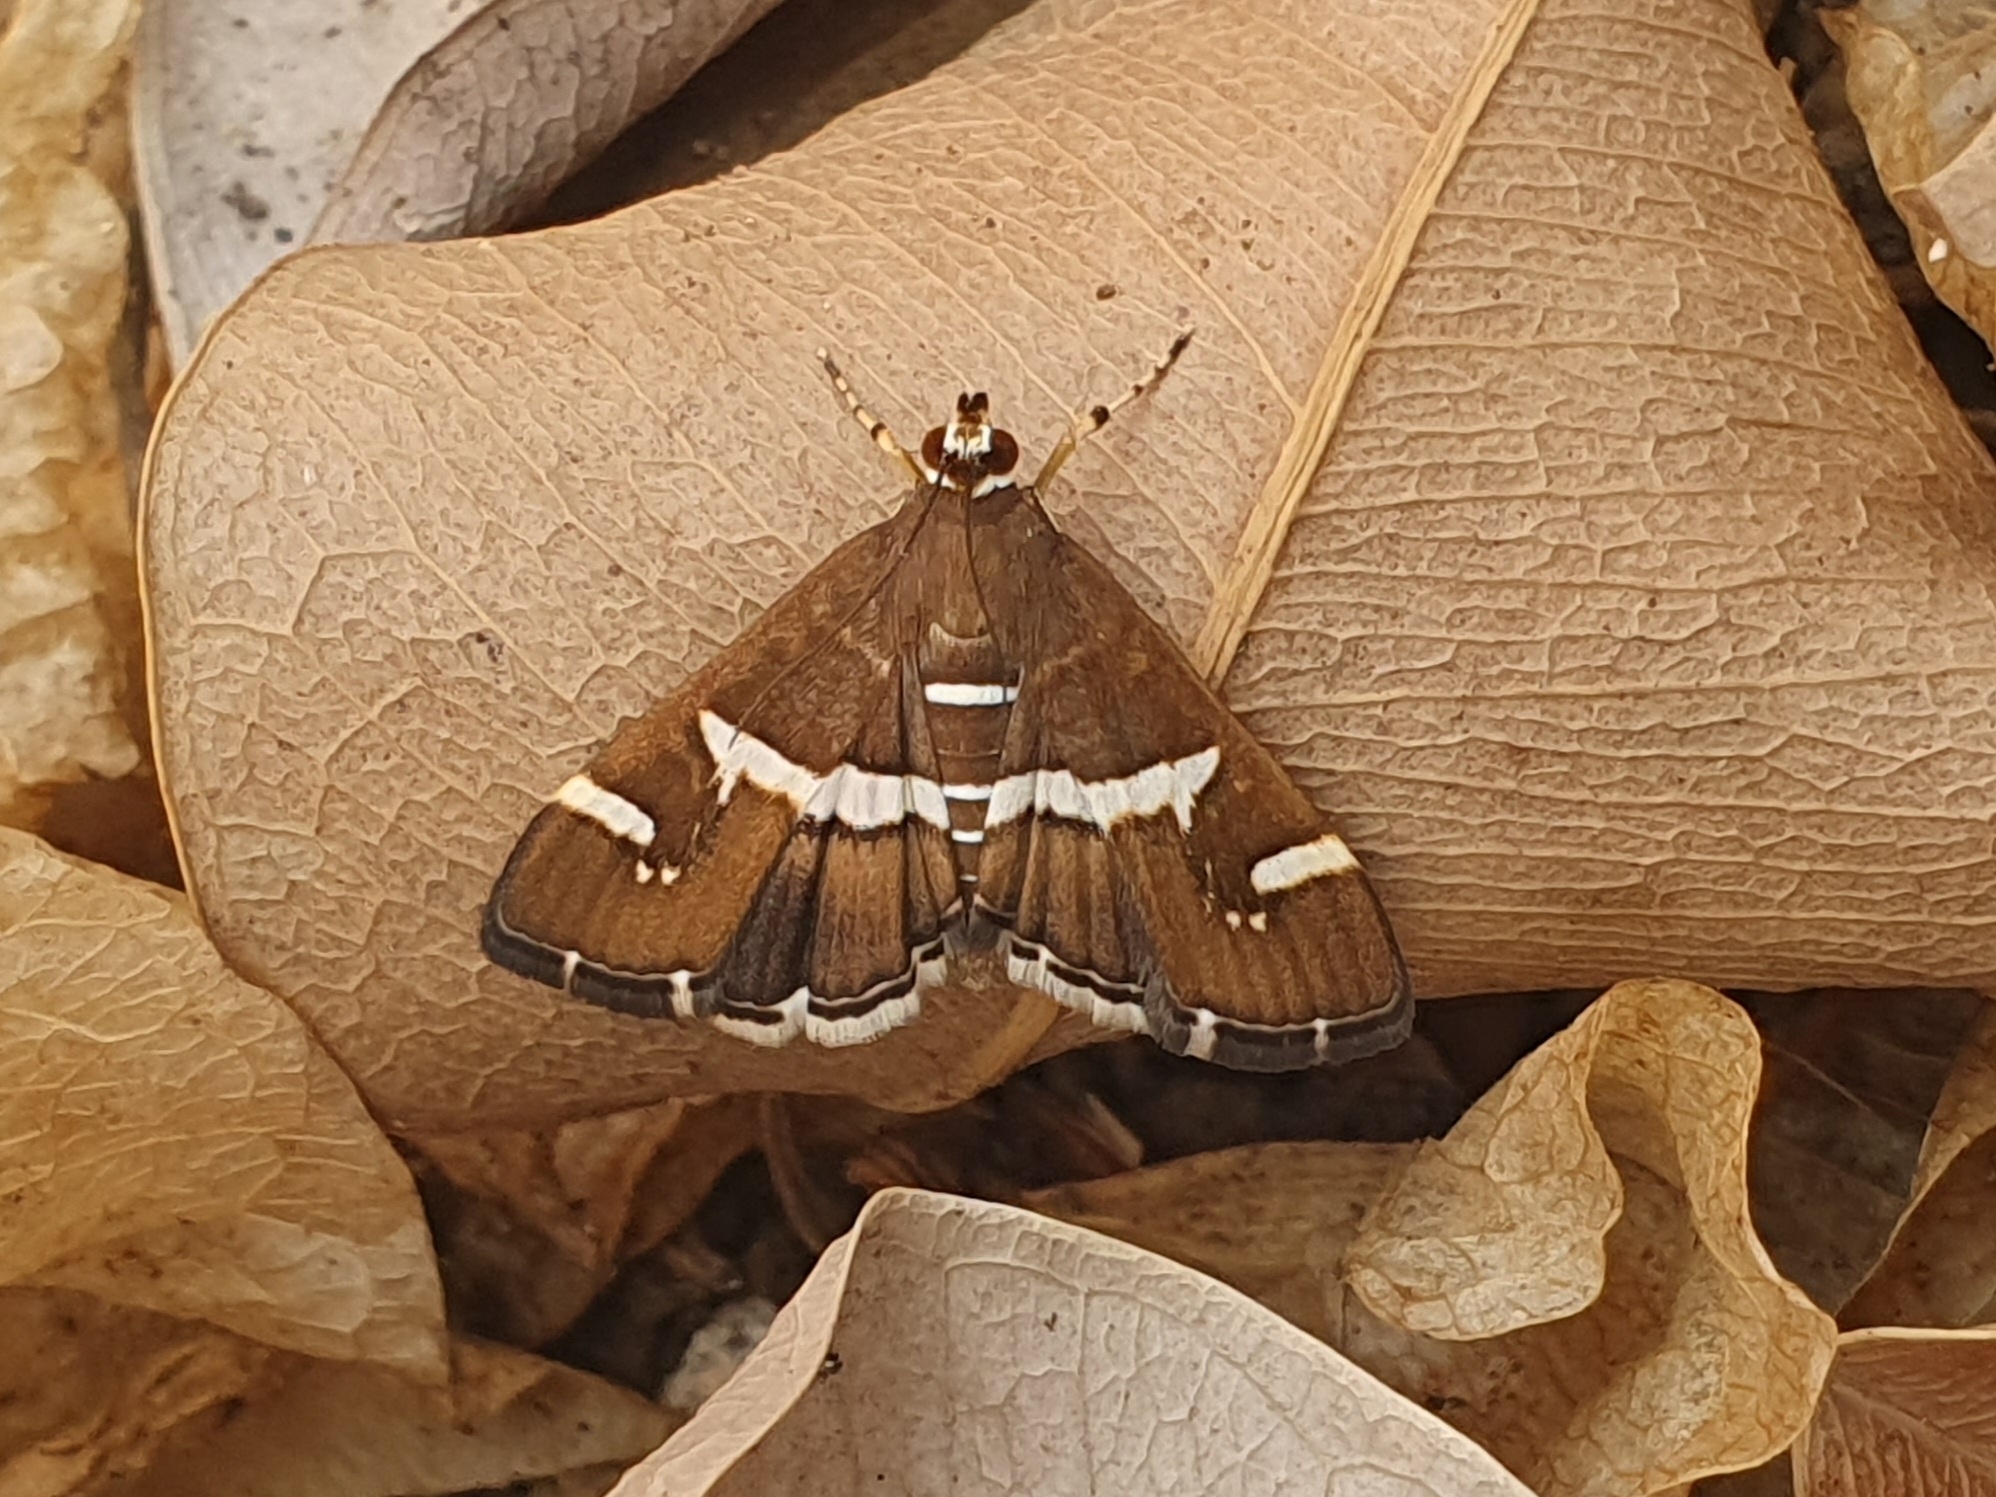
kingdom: Animalia
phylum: Arthropoda
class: Insecta
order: Lepidoptera
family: Crambidae
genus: Spoladea
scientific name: Spoladea recurvalis
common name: Beet webworm moth
